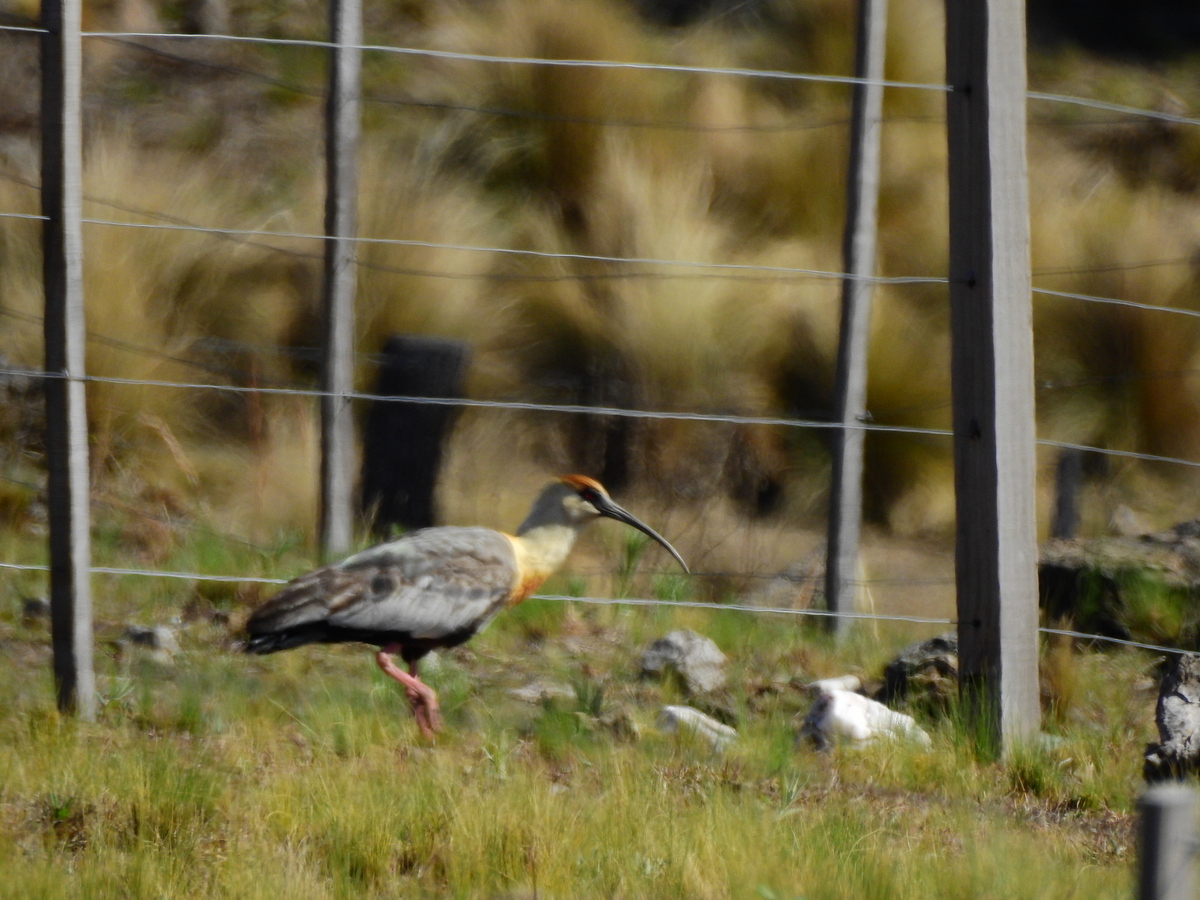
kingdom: Animalia
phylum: Chordata
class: Aves
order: Pelecaniformes
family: Threskiornithidae
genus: Theristicus
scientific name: Theristicus melanopis
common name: Black-faced ibis
